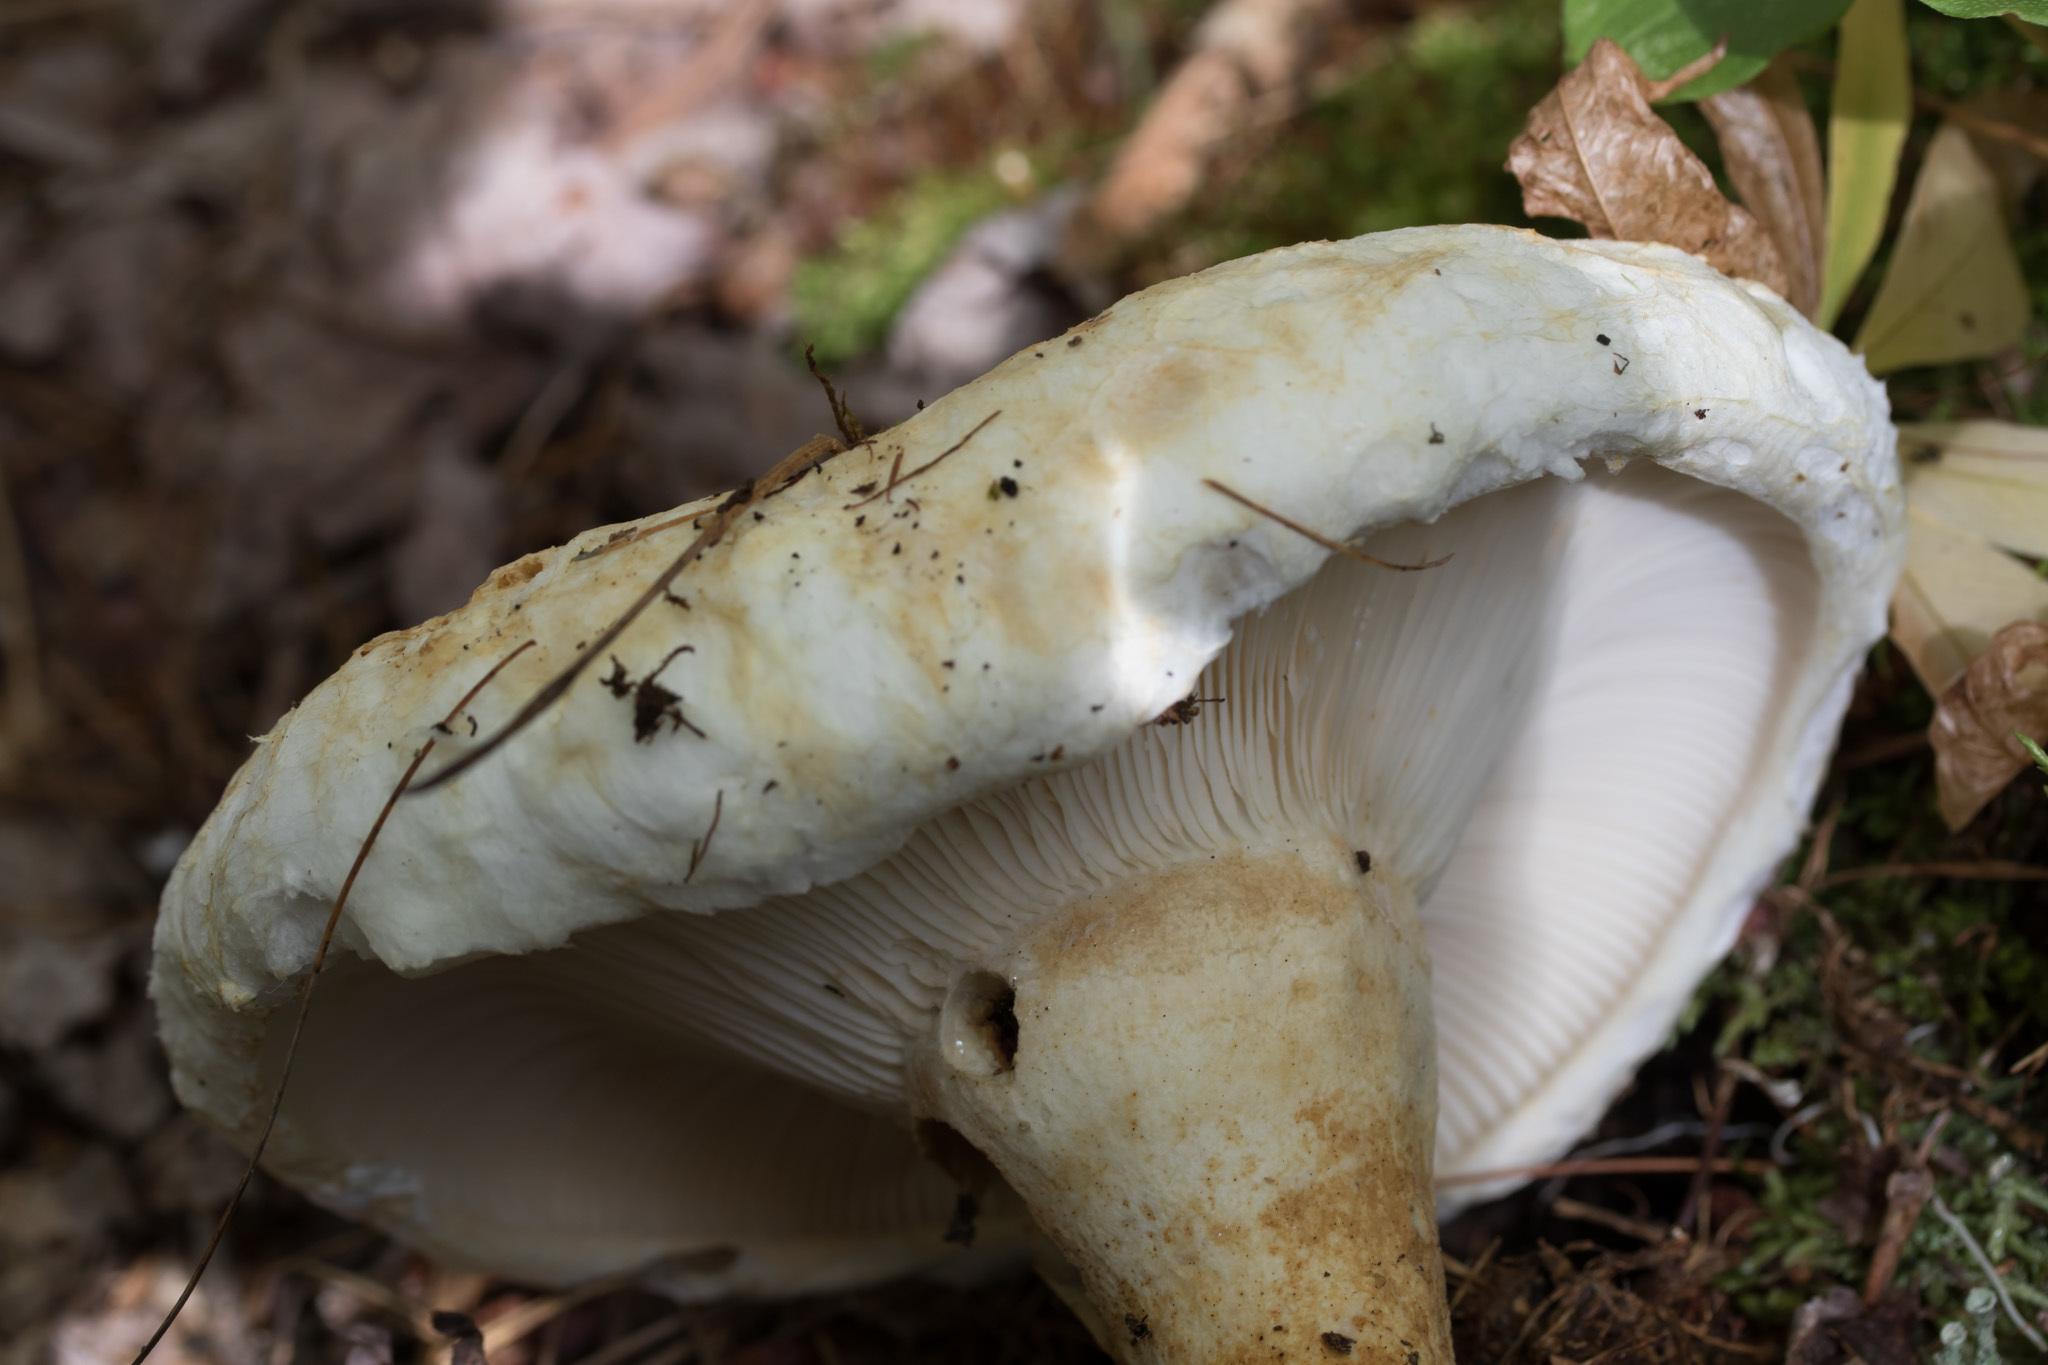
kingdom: Fungi
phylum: Basidiomycota
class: Agaricomycetes
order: Russulales
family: Russulaceae
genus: Lactifluus
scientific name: Lactifluus
